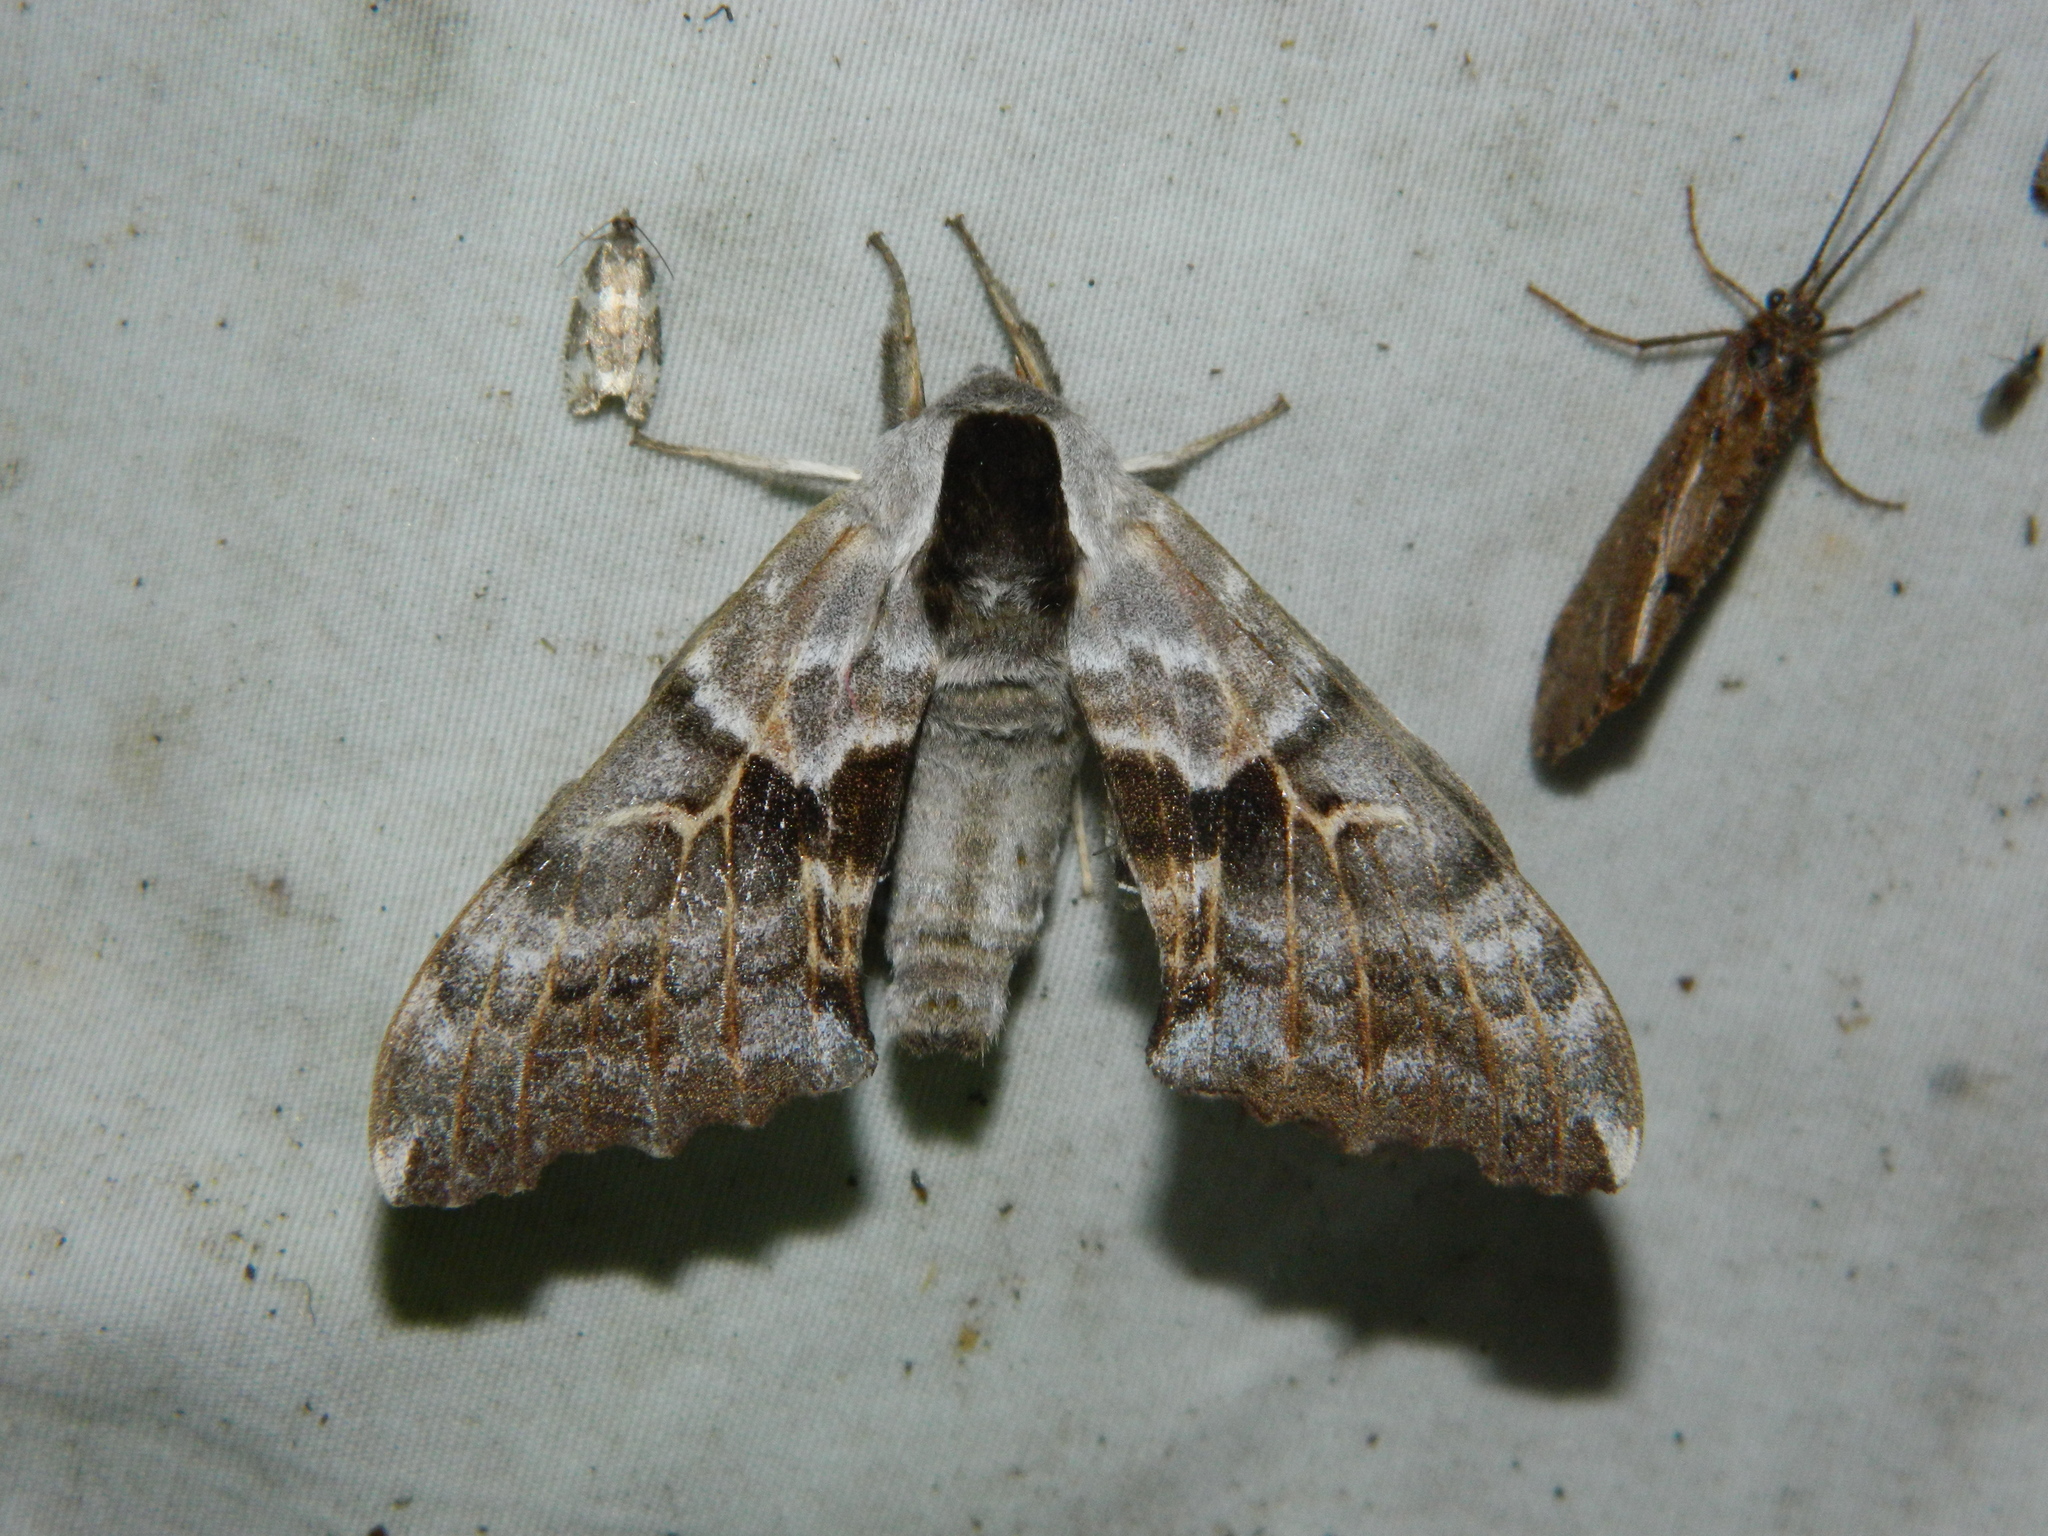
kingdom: Animalia
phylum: Arthropoda
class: Insecta
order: Lepidoptera
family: Sphingidae
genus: Smerinthus
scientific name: Smerinthus cerisyi
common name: Cerisy's sphinx moth
